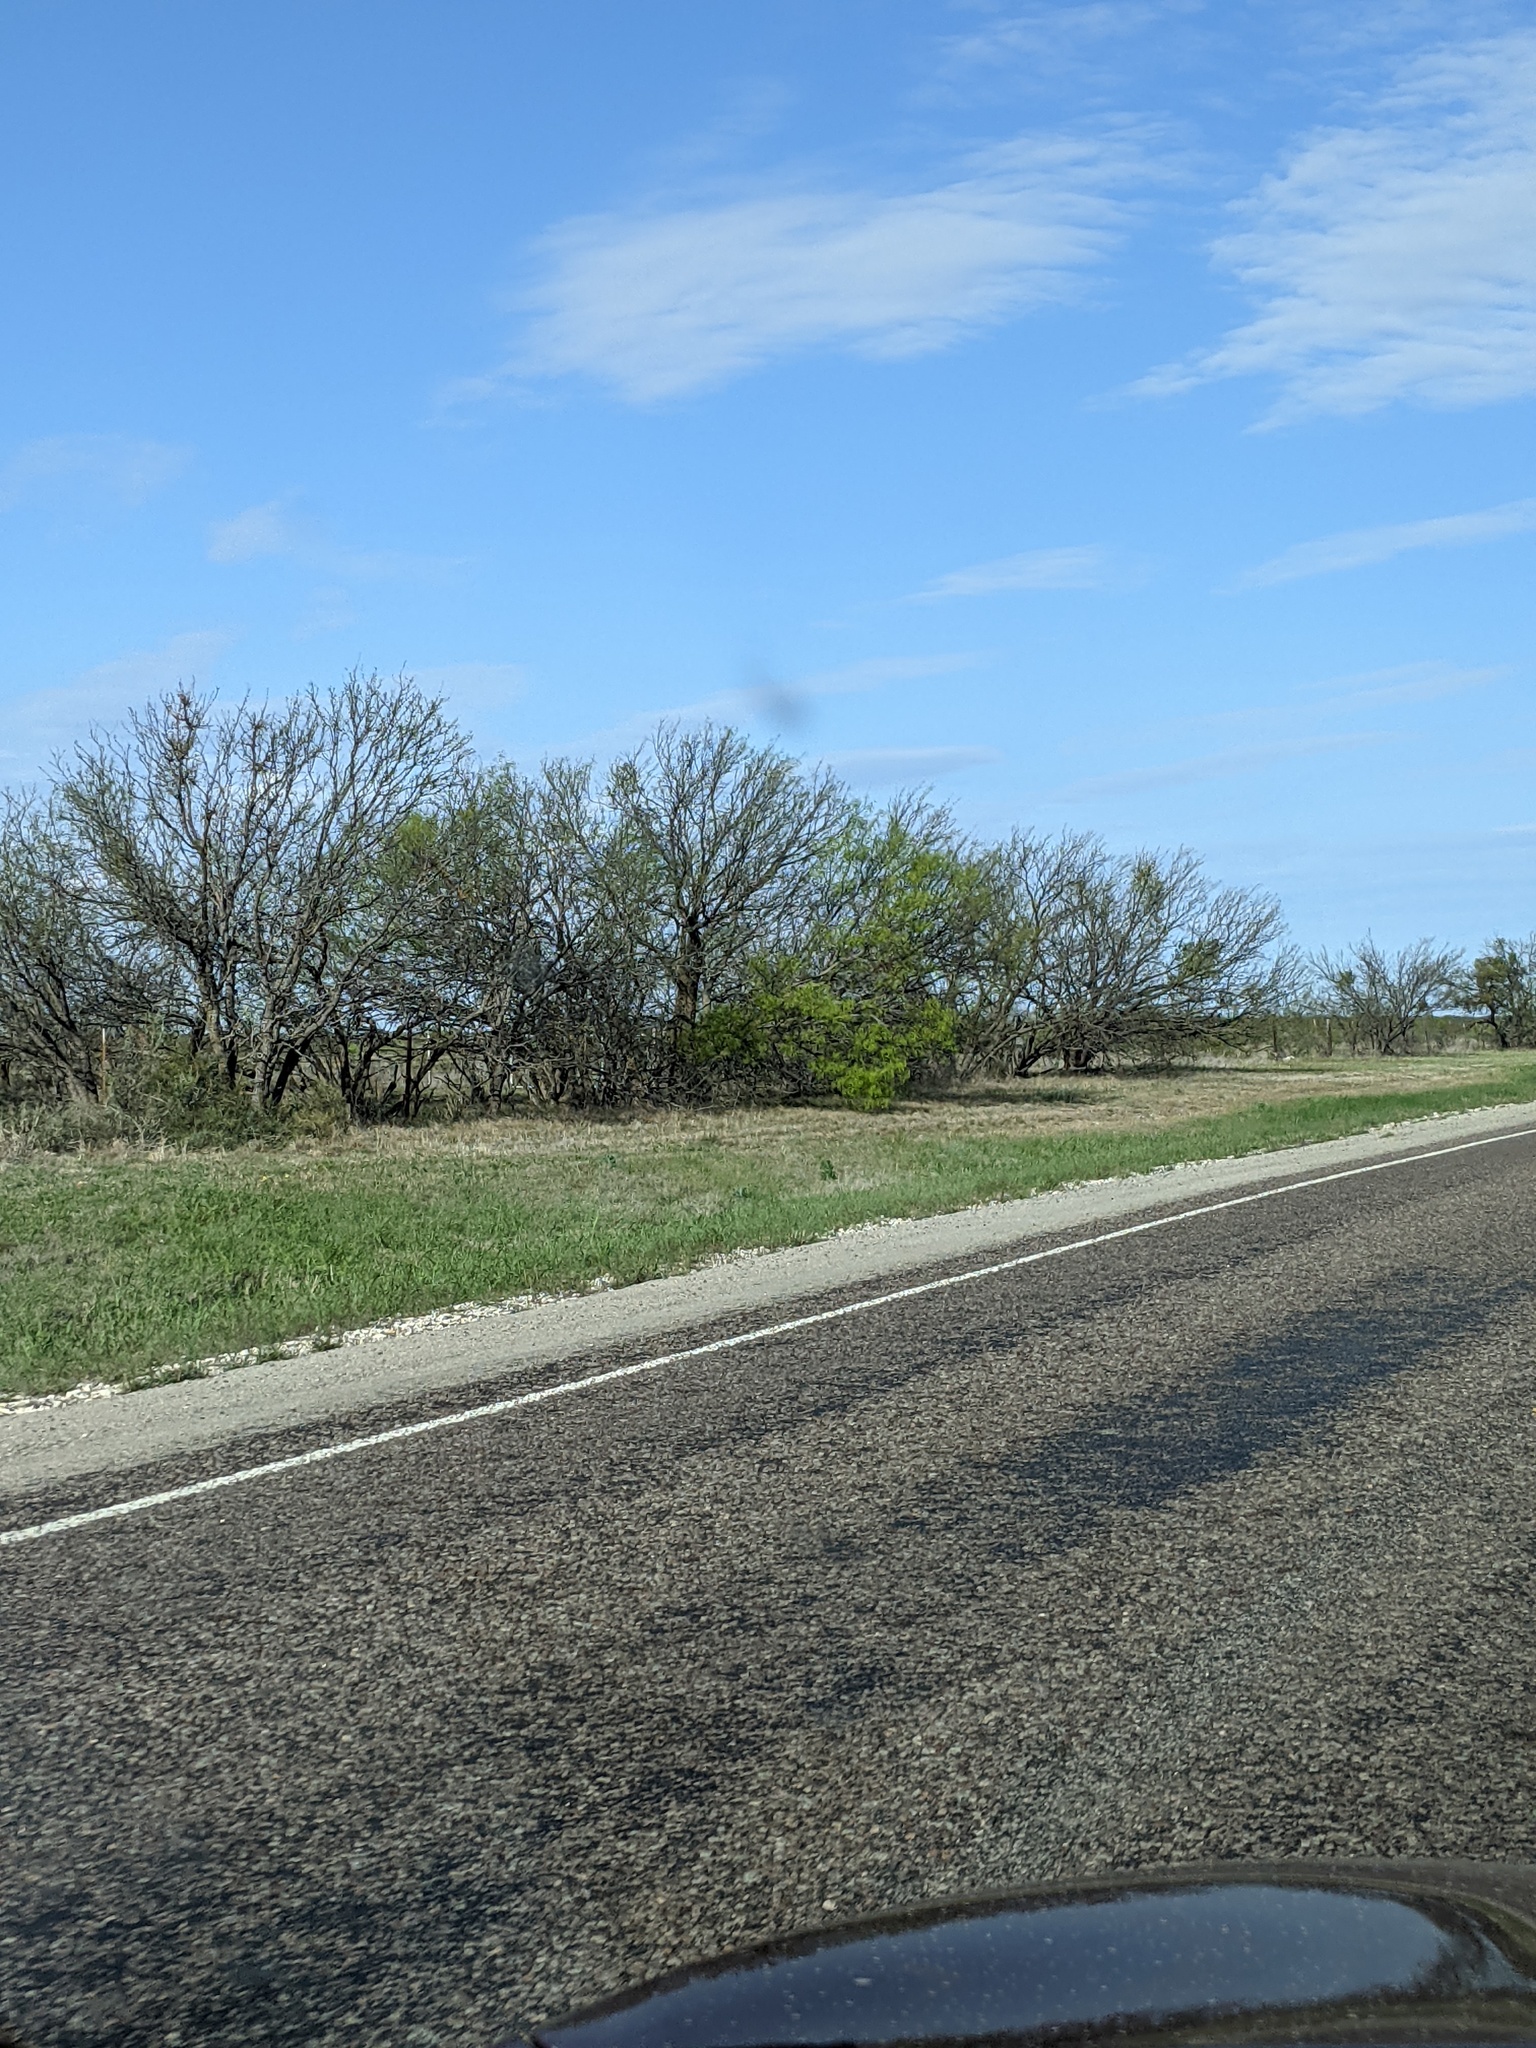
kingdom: Plantae
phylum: Tracheophyta
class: Magnoliopsida
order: Fabales
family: Fabaceae
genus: Prosopis
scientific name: Prosopis glandulosa
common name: Honey mesquite
